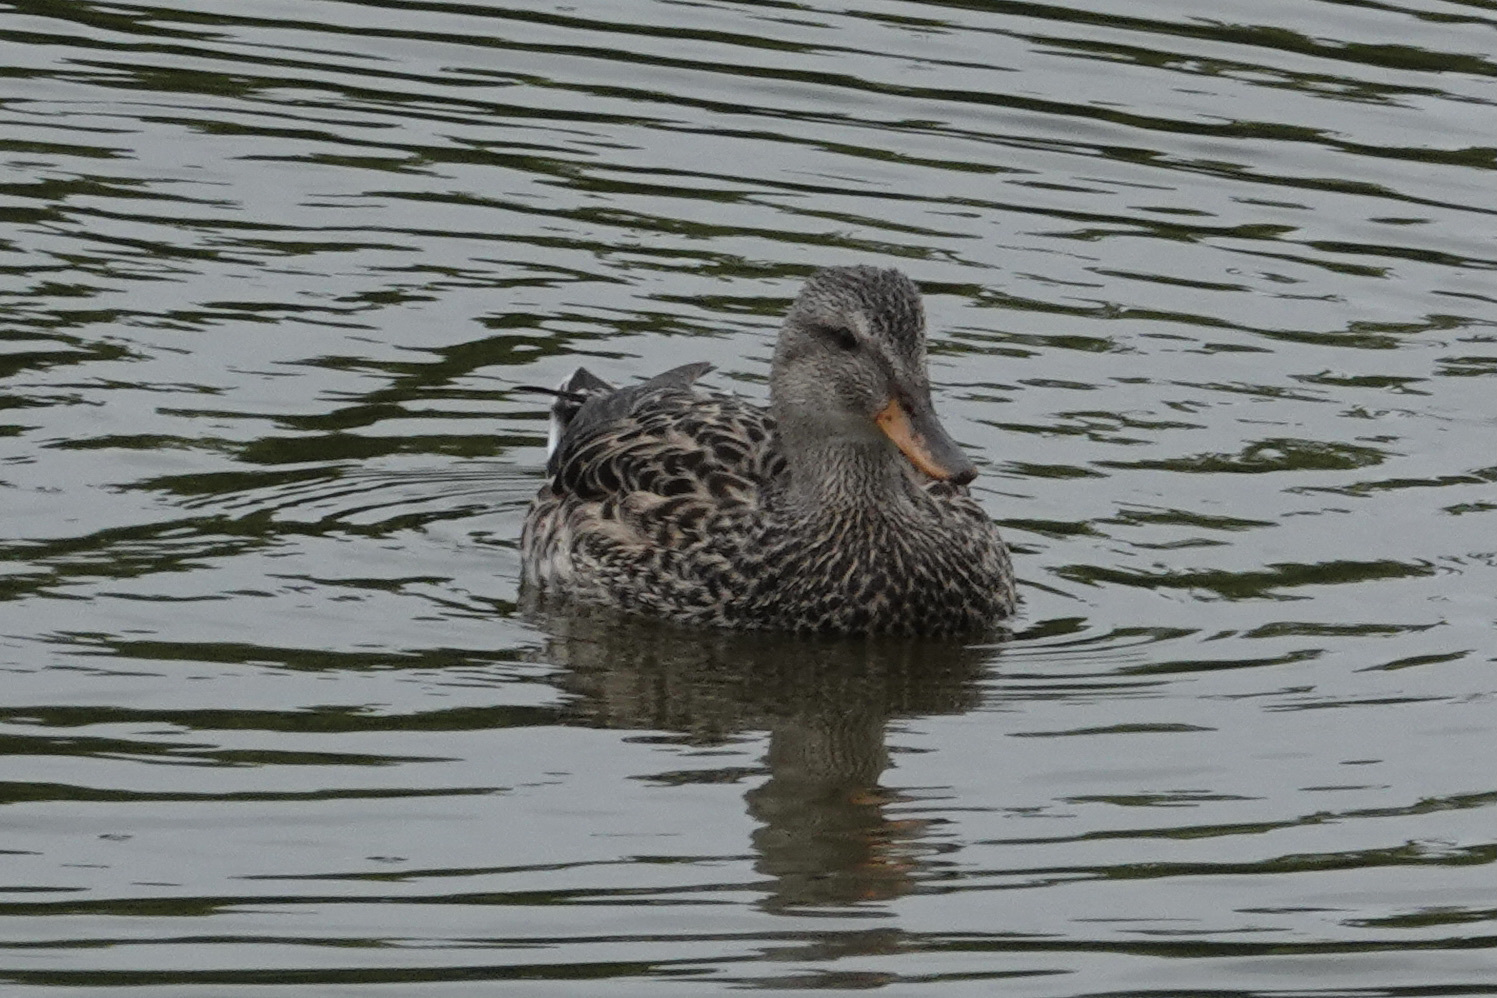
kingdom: Animalia
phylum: Chordata
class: Aves
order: Anseriformes
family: Anatidae
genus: Anas
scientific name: Anas platyrhynchos
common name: Mallard
